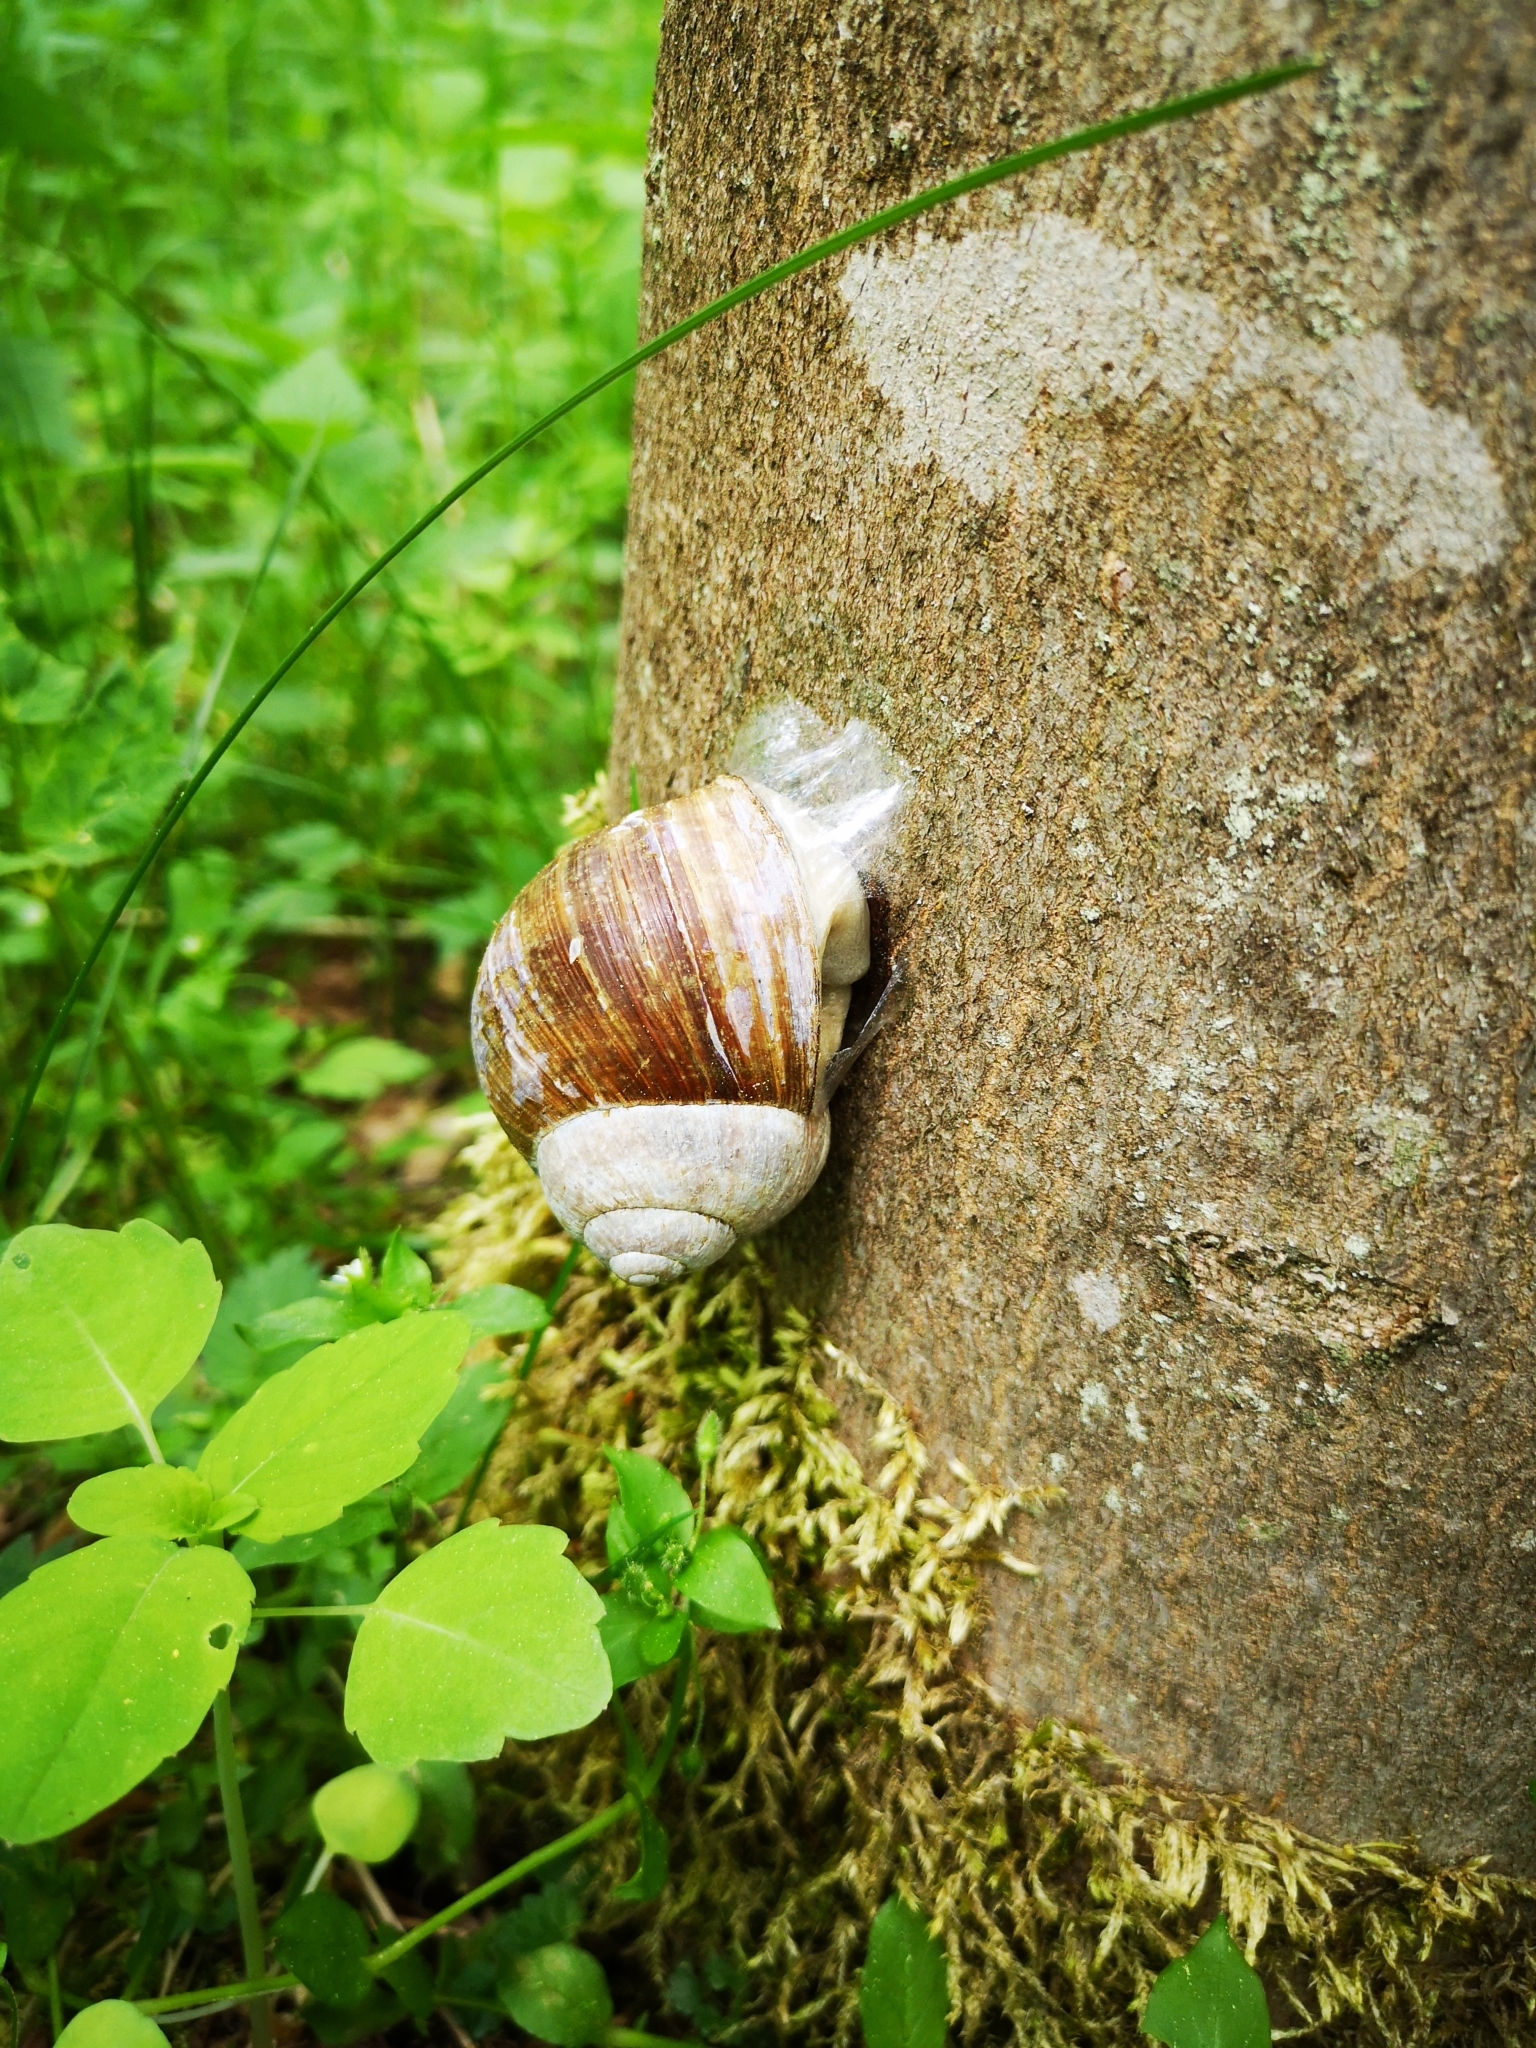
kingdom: Animalia
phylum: Mollusca
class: Gastropoda
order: Stylommatophora
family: Helicidae
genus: Helix
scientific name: Helix pomatia
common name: Roman snail
